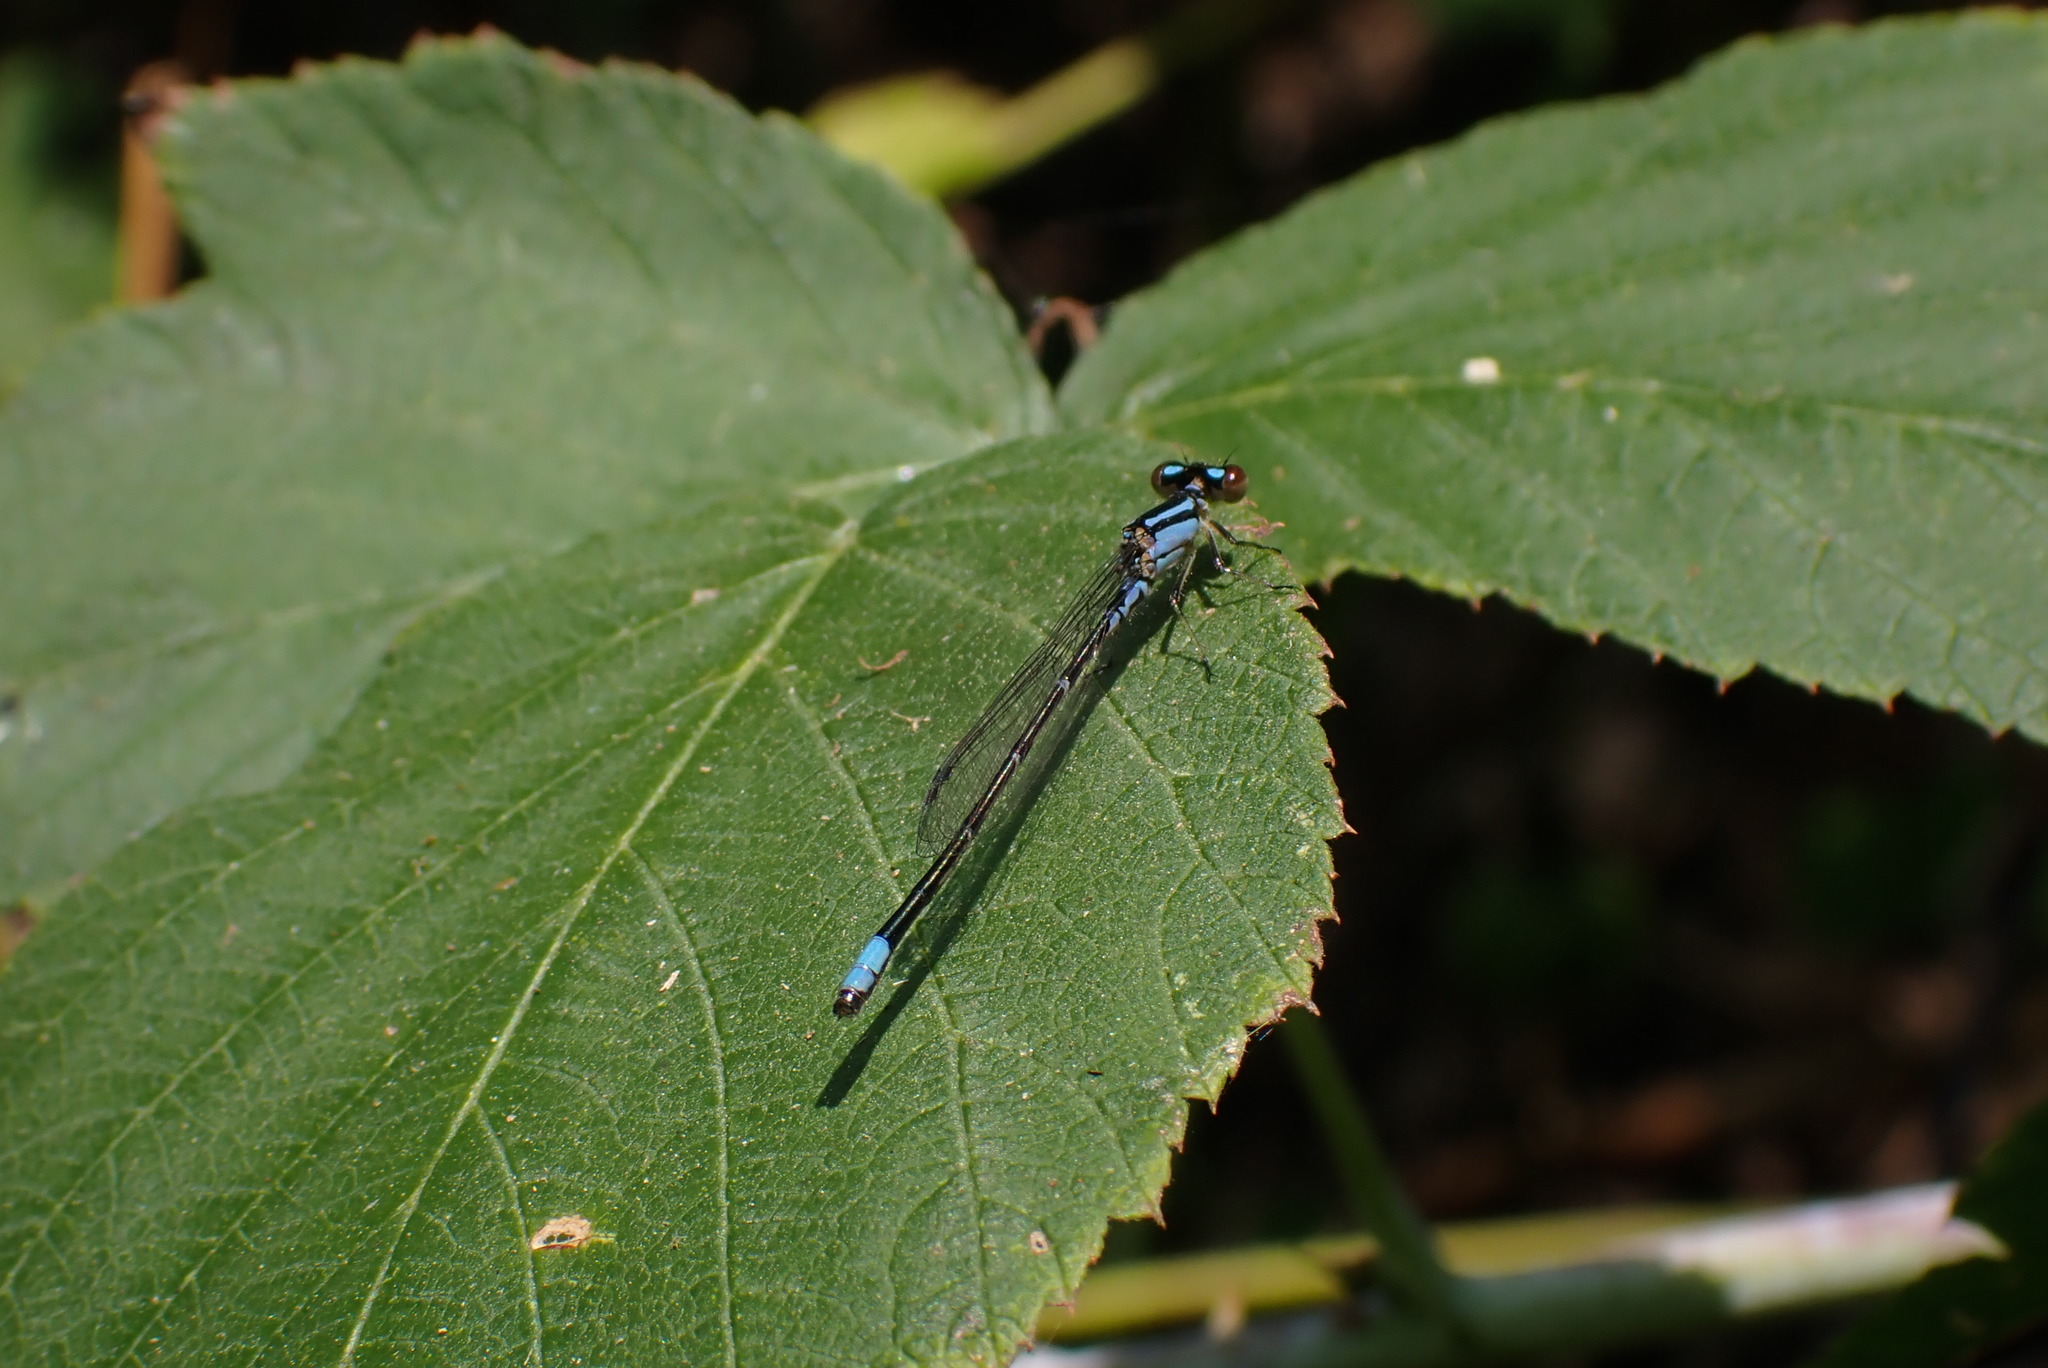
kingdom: Animalia
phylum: Arthropoda
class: Insecta
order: Odonata
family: Coenagrionidae
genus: Enallagma
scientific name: Enallagma geminatum
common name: Skimming bluet
